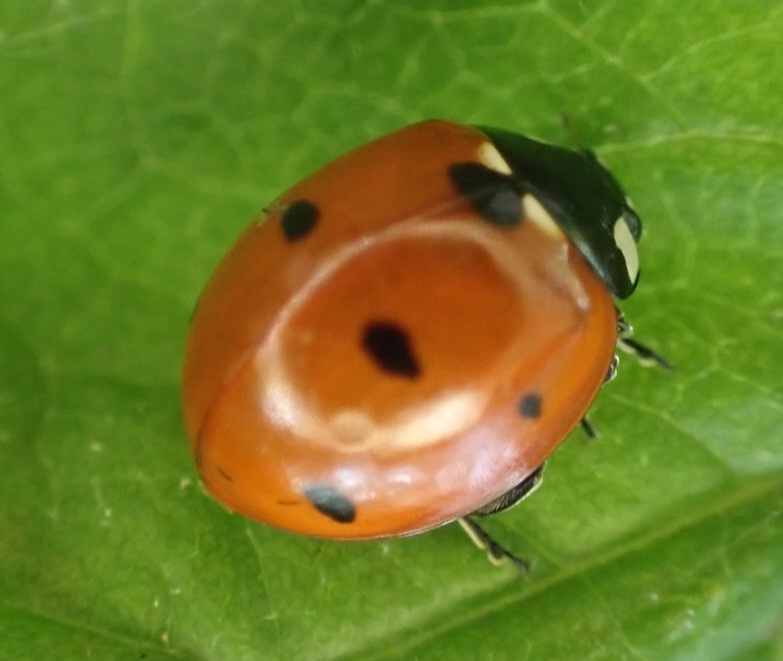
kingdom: Animalia
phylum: Arthropoda
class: Insecta
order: Coleoptera
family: Coccinellidae
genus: Coccinella
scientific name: Coccinella septempunctata
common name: Sevenspotted lady beetle
